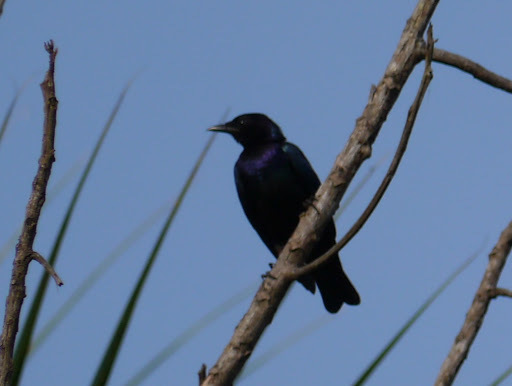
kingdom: Animalia
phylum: Chordata
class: Aves
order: Passeriformes
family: Sturnidae
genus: Hylopsar
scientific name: Hylopsar purpureiceps
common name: Purple-headed starling
